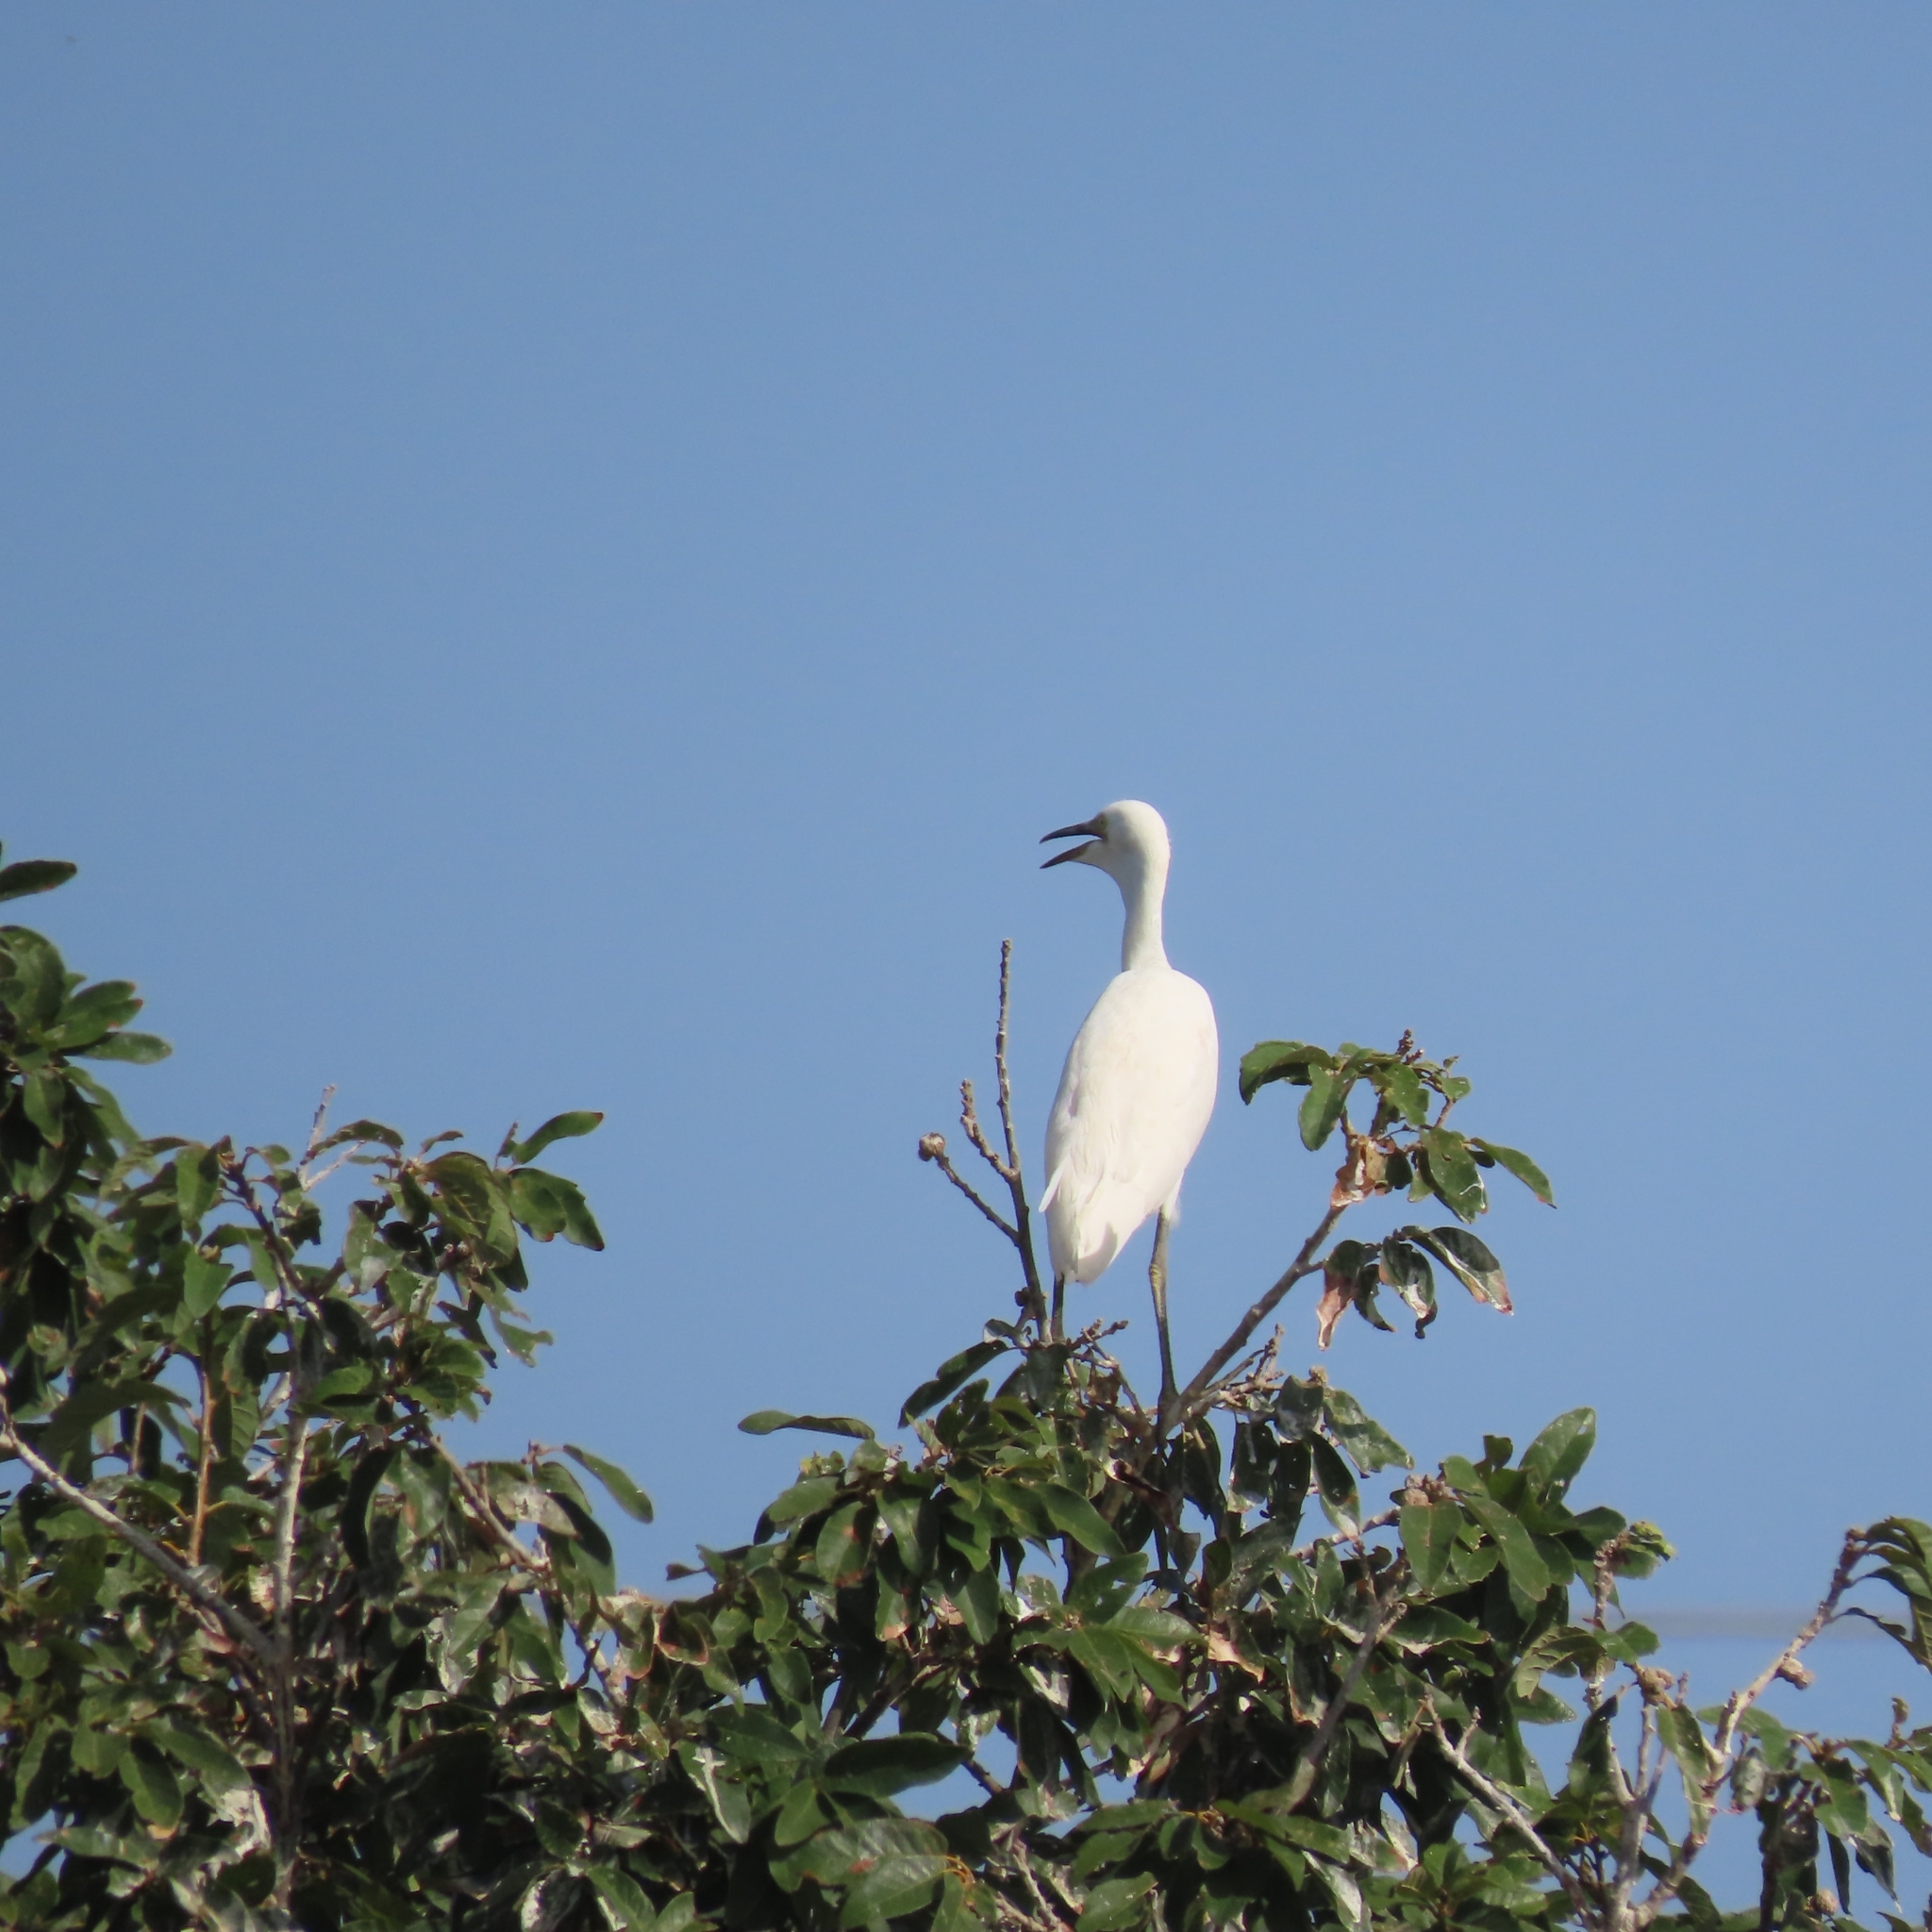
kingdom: Animalia
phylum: Chordata
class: Aves
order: Pelecaniformes
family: Ardeidae
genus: Bubulcus
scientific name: Bubulcus ibis
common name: Cattle egret
